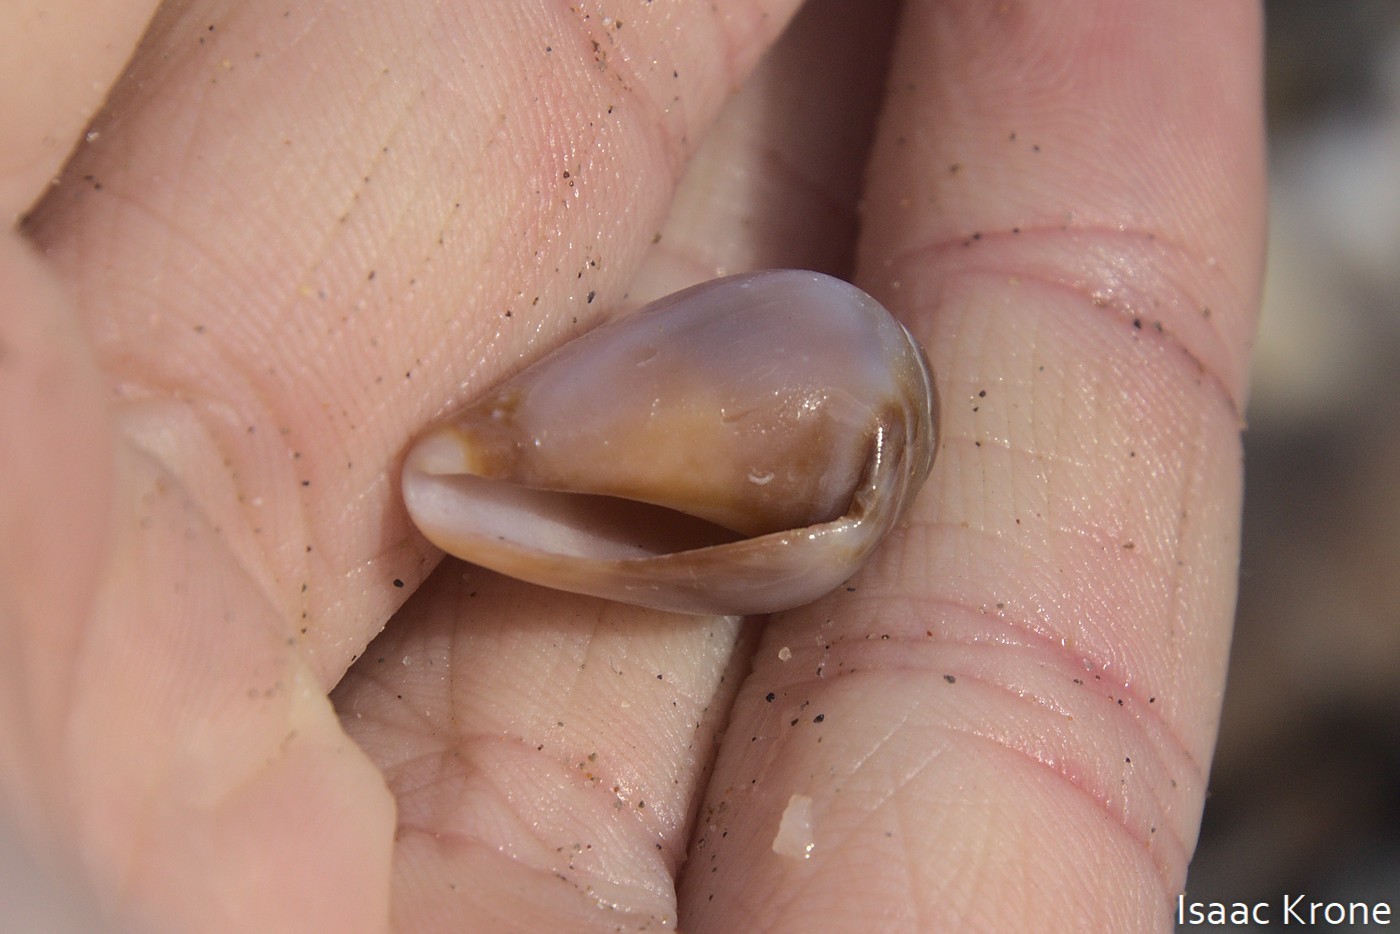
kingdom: Animalia
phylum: Mollusca
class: Gastropoda
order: Neogastropoda
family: Conidae
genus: Californiconus
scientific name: Californiconus californicus
